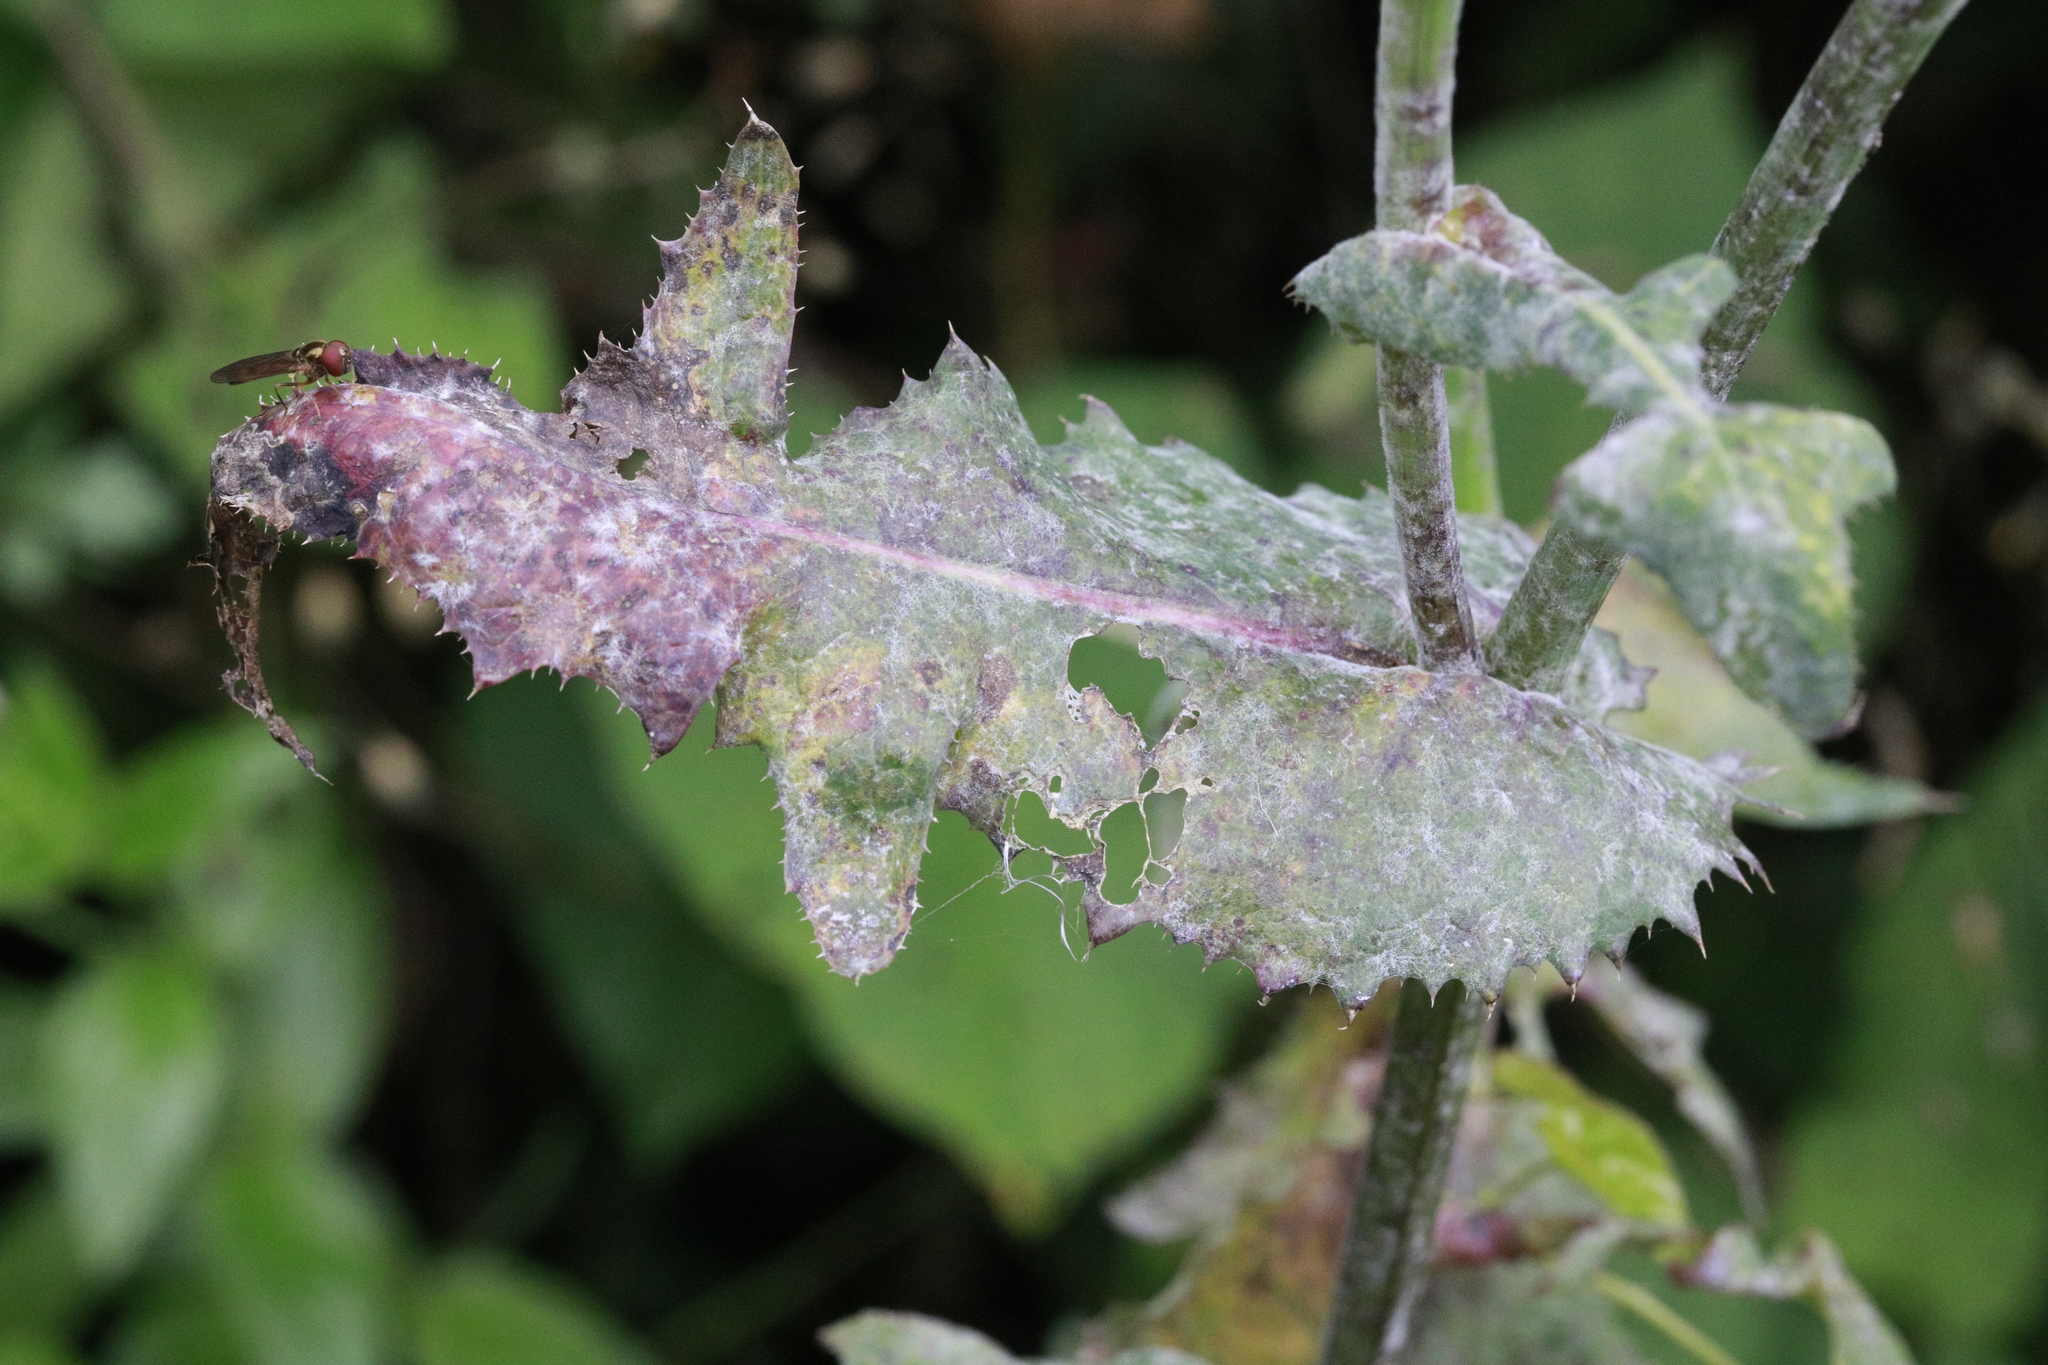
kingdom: Fungi
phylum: Ascomycota
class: Leotiomycetes
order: Helotiales
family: Erysiphaceae
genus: Golovinomyces
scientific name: Golovinomyces sonchicola
